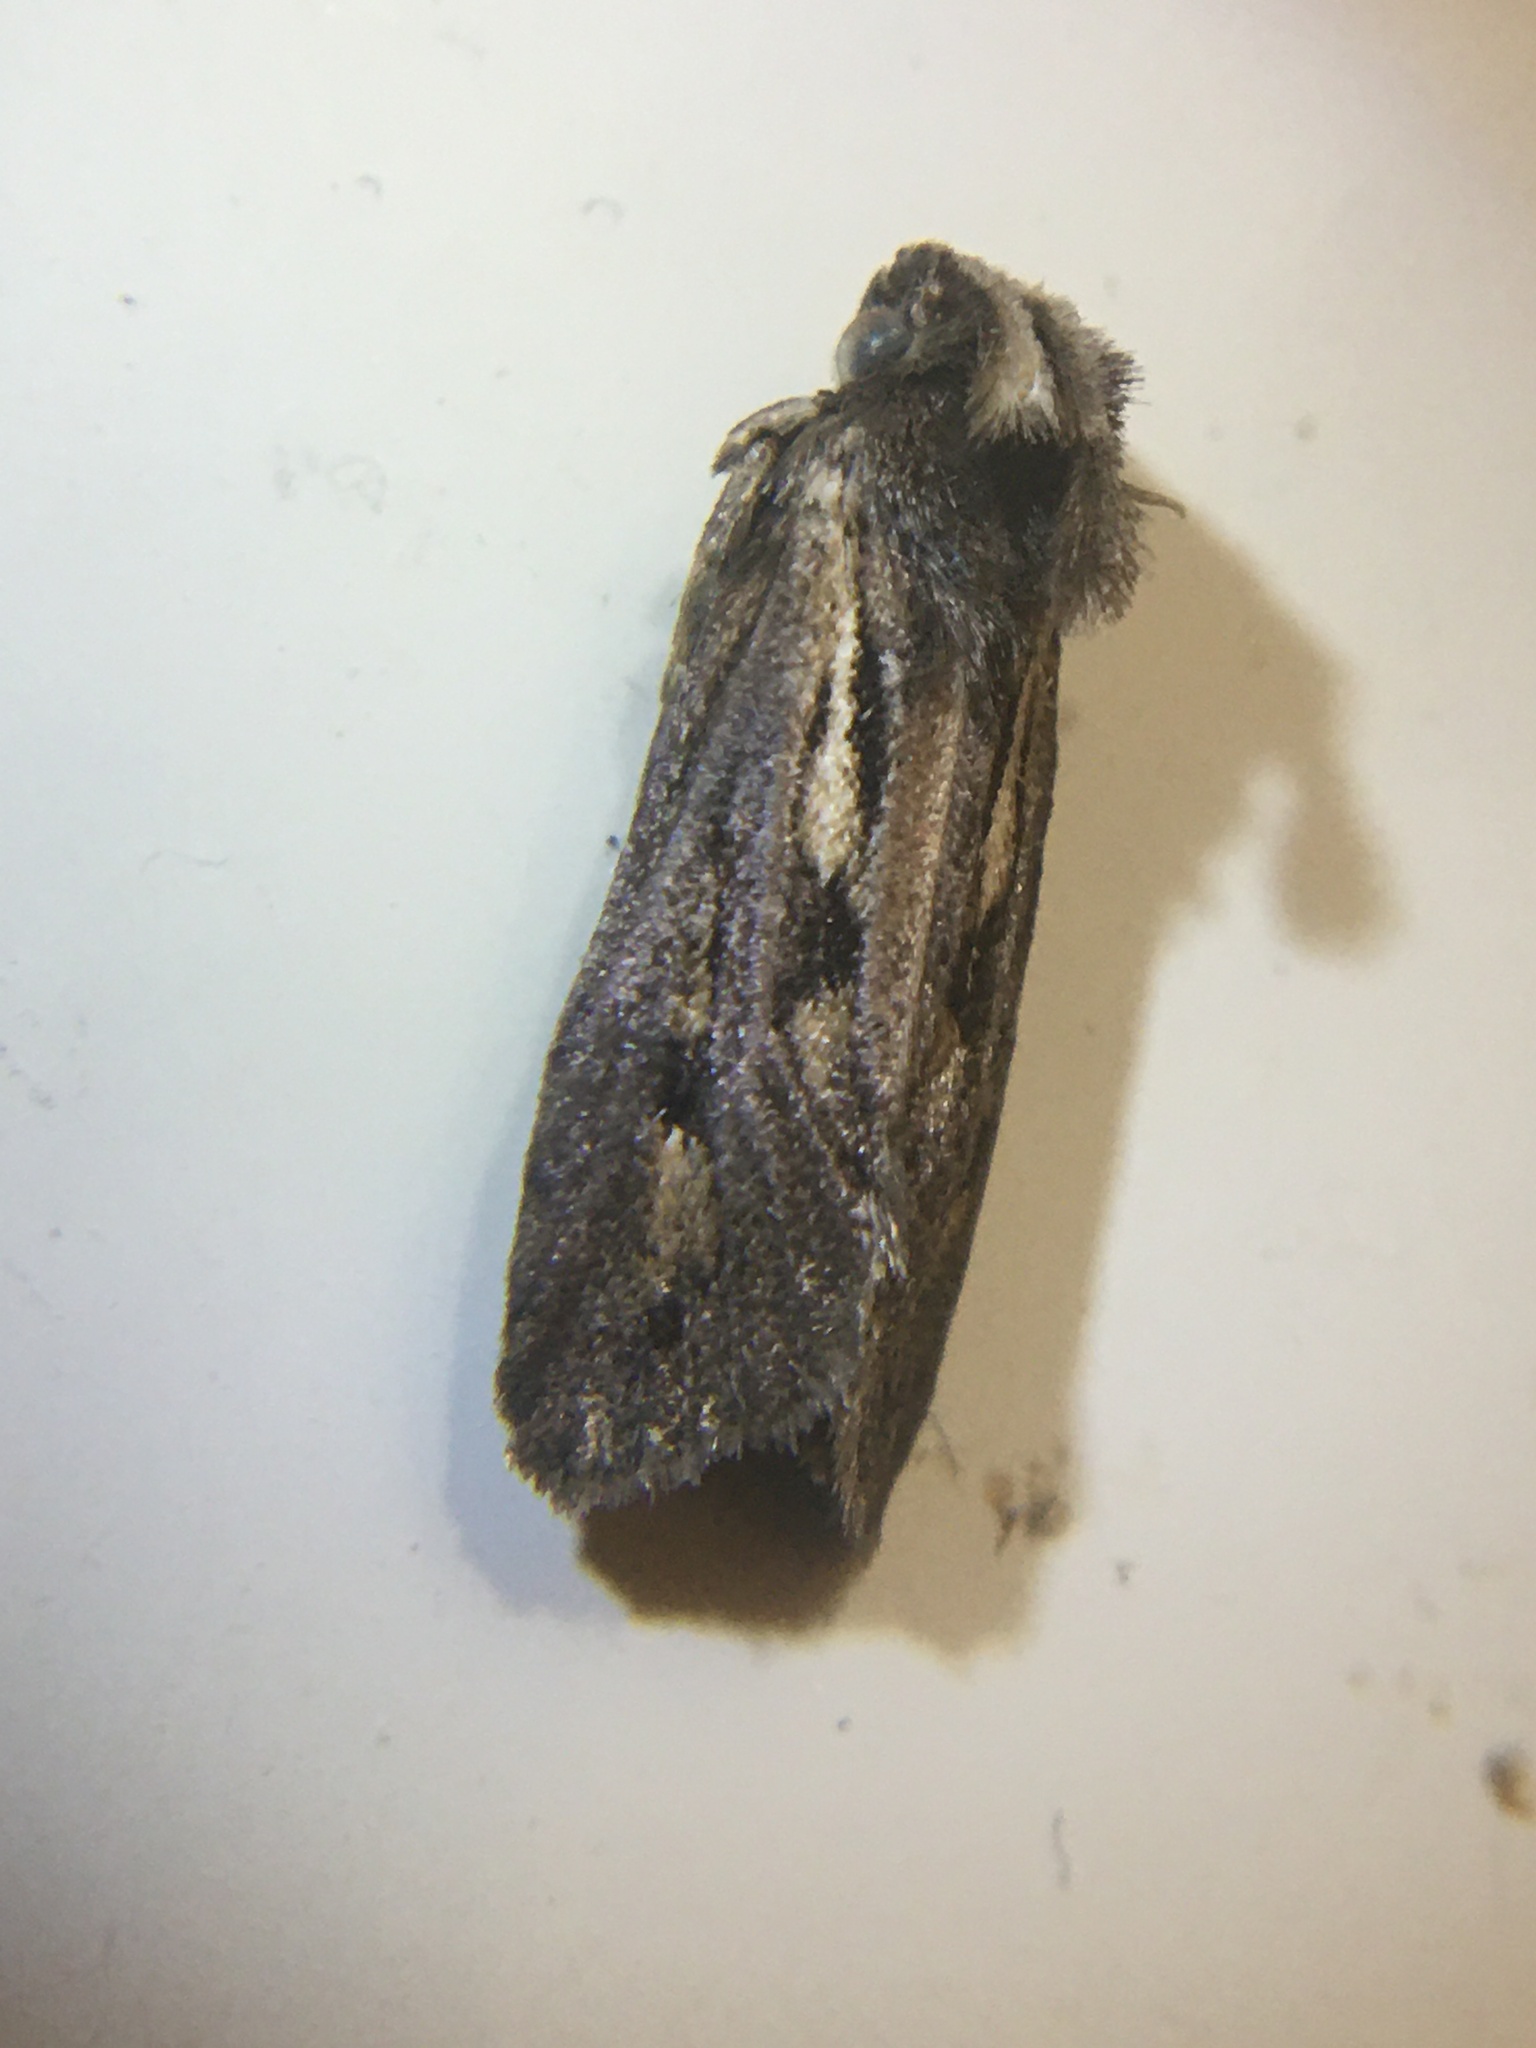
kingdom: Animalia
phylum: Arthropoda
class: Insecta
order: Lepidoptera
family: Tineidae
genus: Acrolophus
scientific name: Acrolophus popeanella
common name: Clemens' grass tubeworm moth
